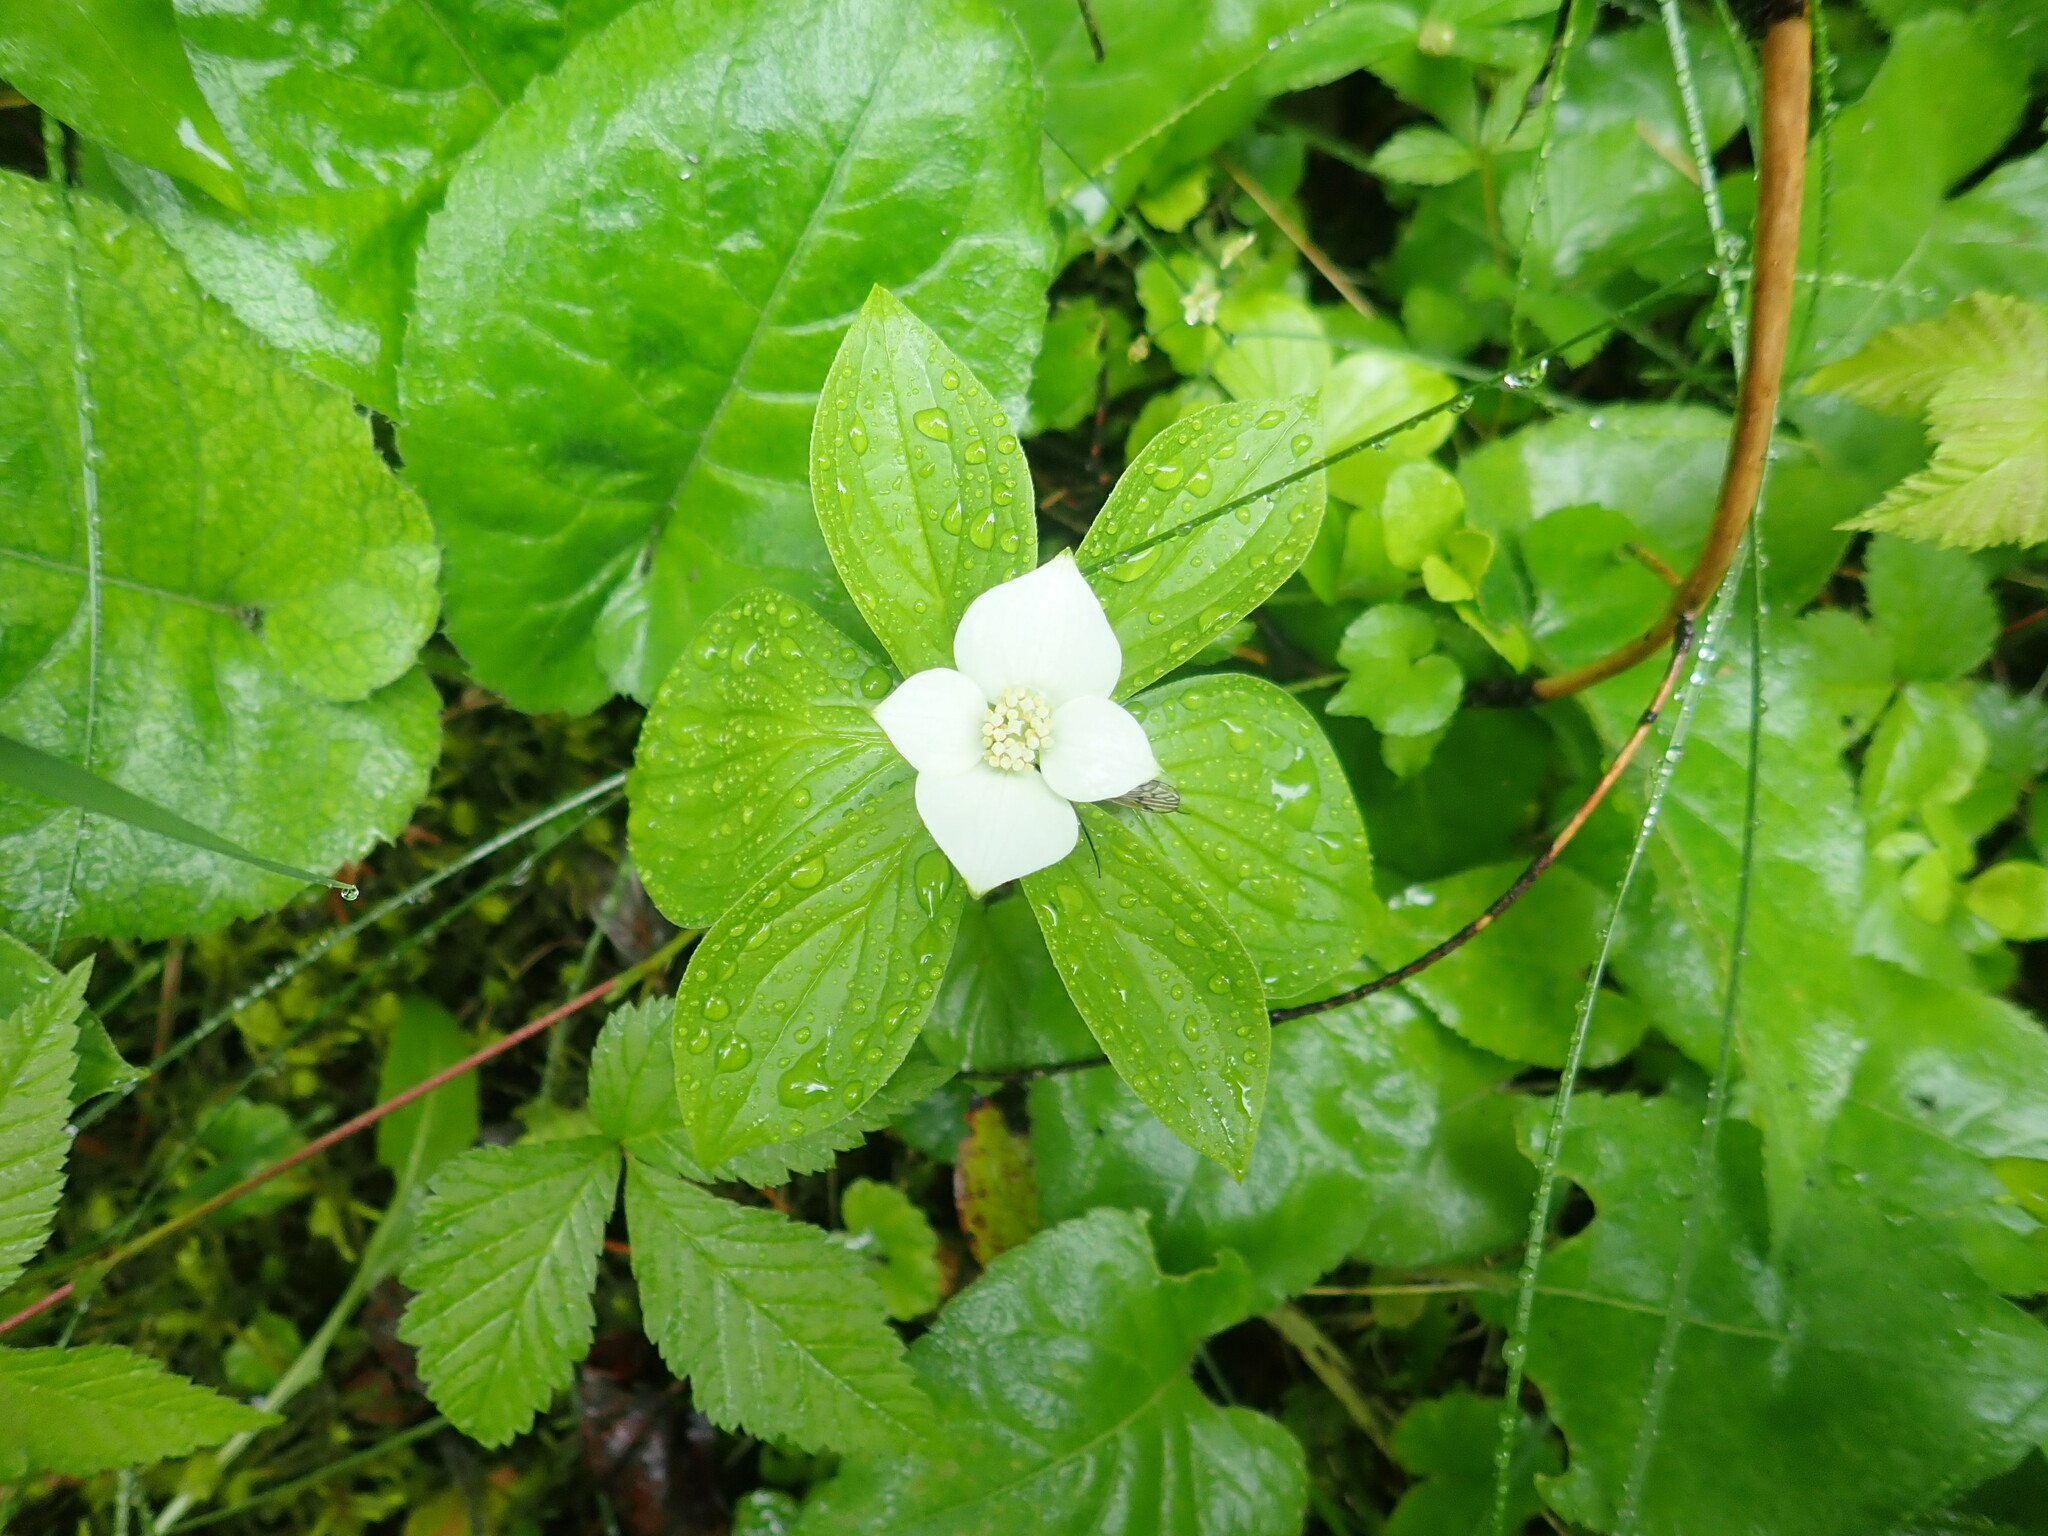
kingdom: Plantae
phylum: Tracheophyta
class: Magnoliopsida
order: Cornales
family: Cornaceae
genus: Cornus
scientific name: Cornus canadensis
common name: Creeping dogwood
